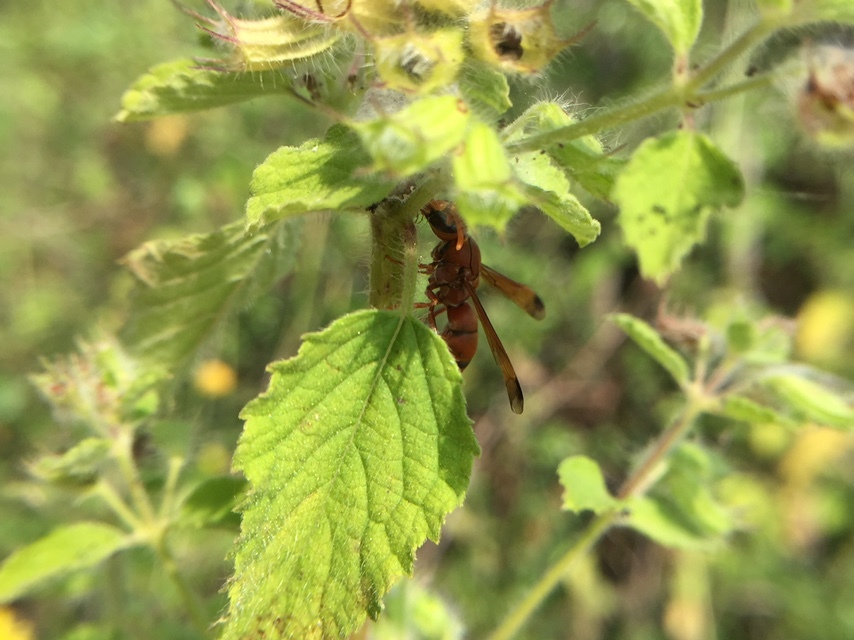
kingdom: Animalia
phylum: Arthropoda
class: Insecta
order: Hymenoptera
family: Eumenidae
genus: Antodynerus
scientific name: Antodynerus limbatus
